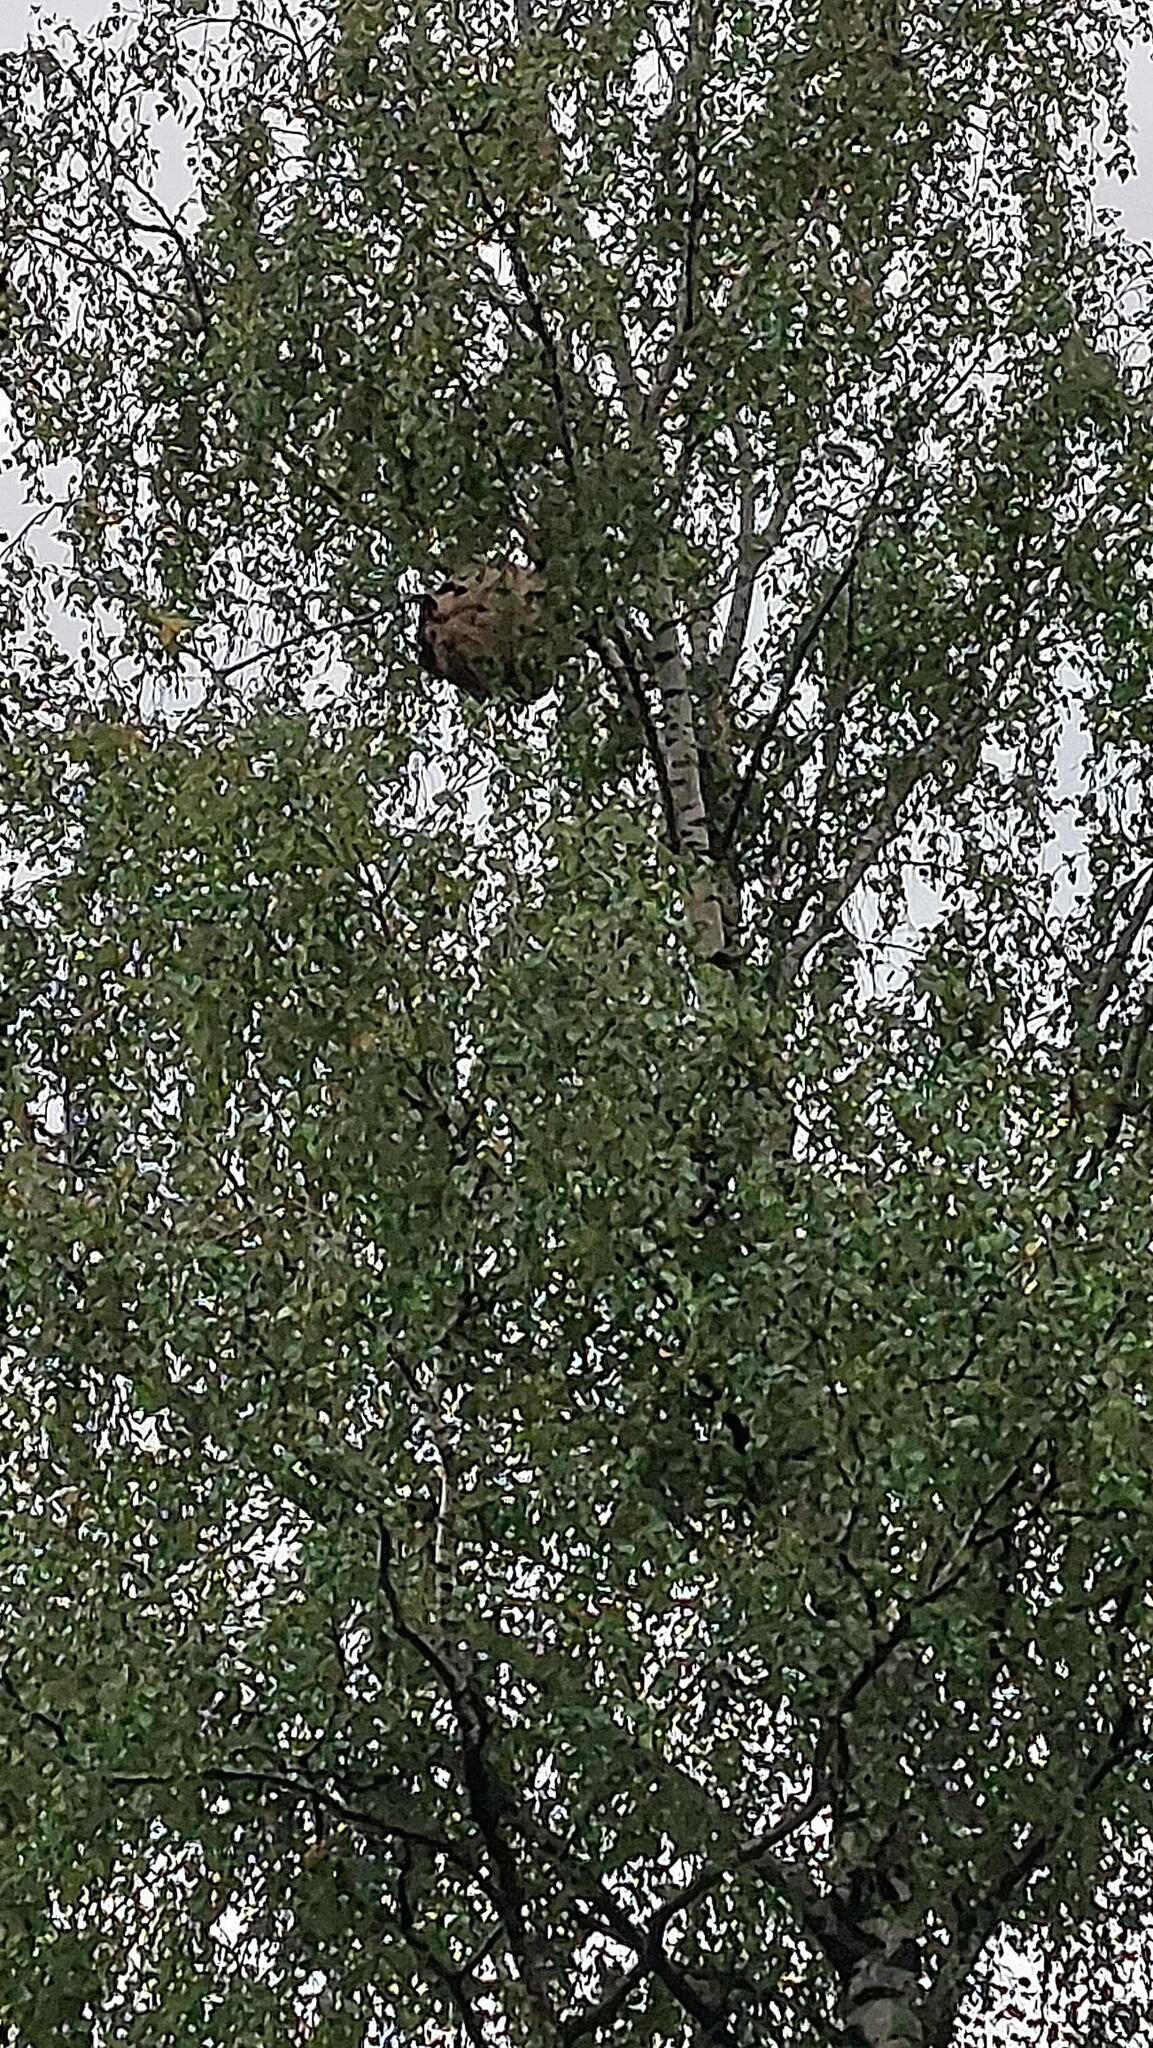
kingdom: Animalia
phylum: Arthropoda
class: Insecta
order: Hymenoptera
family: Vespidae
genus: Vespa
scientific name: Vespa velutina
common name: Asian hornet
